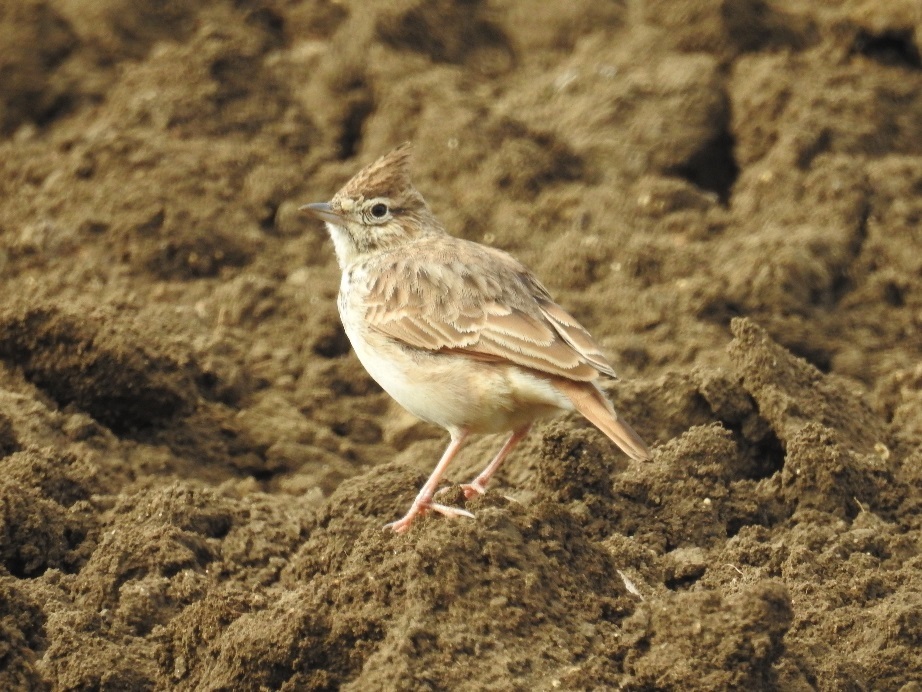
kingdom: Animalia
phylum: Chordata
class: Aves
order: Passeriformes
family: Alaudidae
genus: Galerida
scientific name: Galerida theklae
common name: Thekla lark
